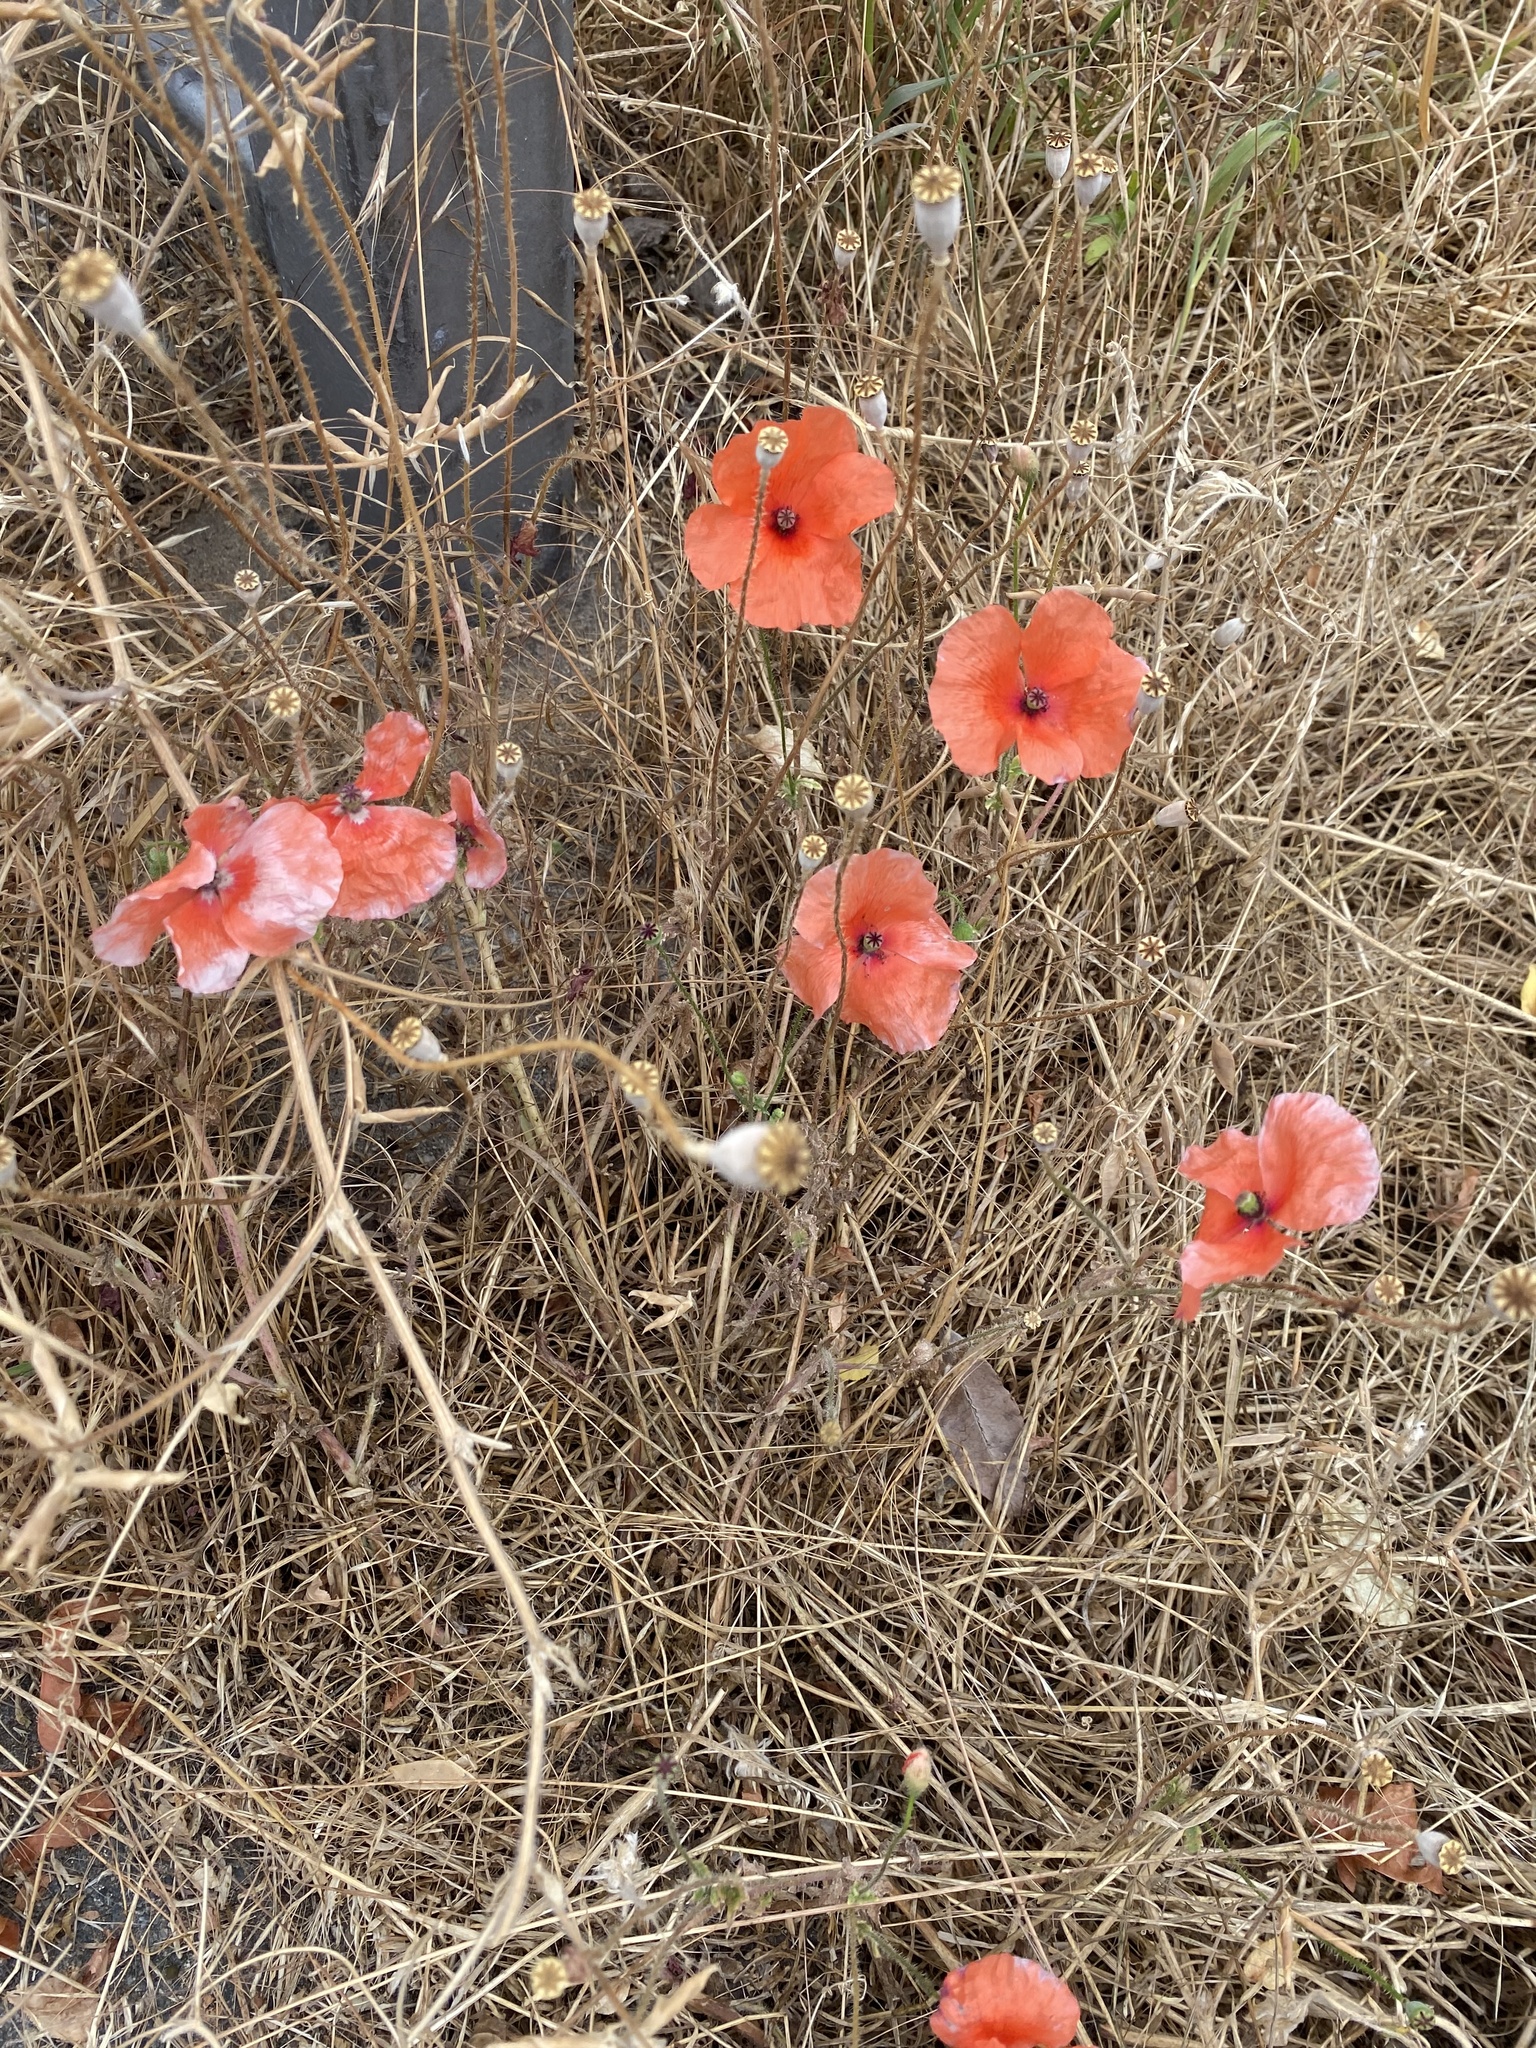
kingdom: Plantae
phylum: Tracheophyta
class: Magnoliopsida
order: Ranunculales
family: Papaveraceae
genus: Papaver
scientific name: Papaver rhoeas
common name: Corn poppy
